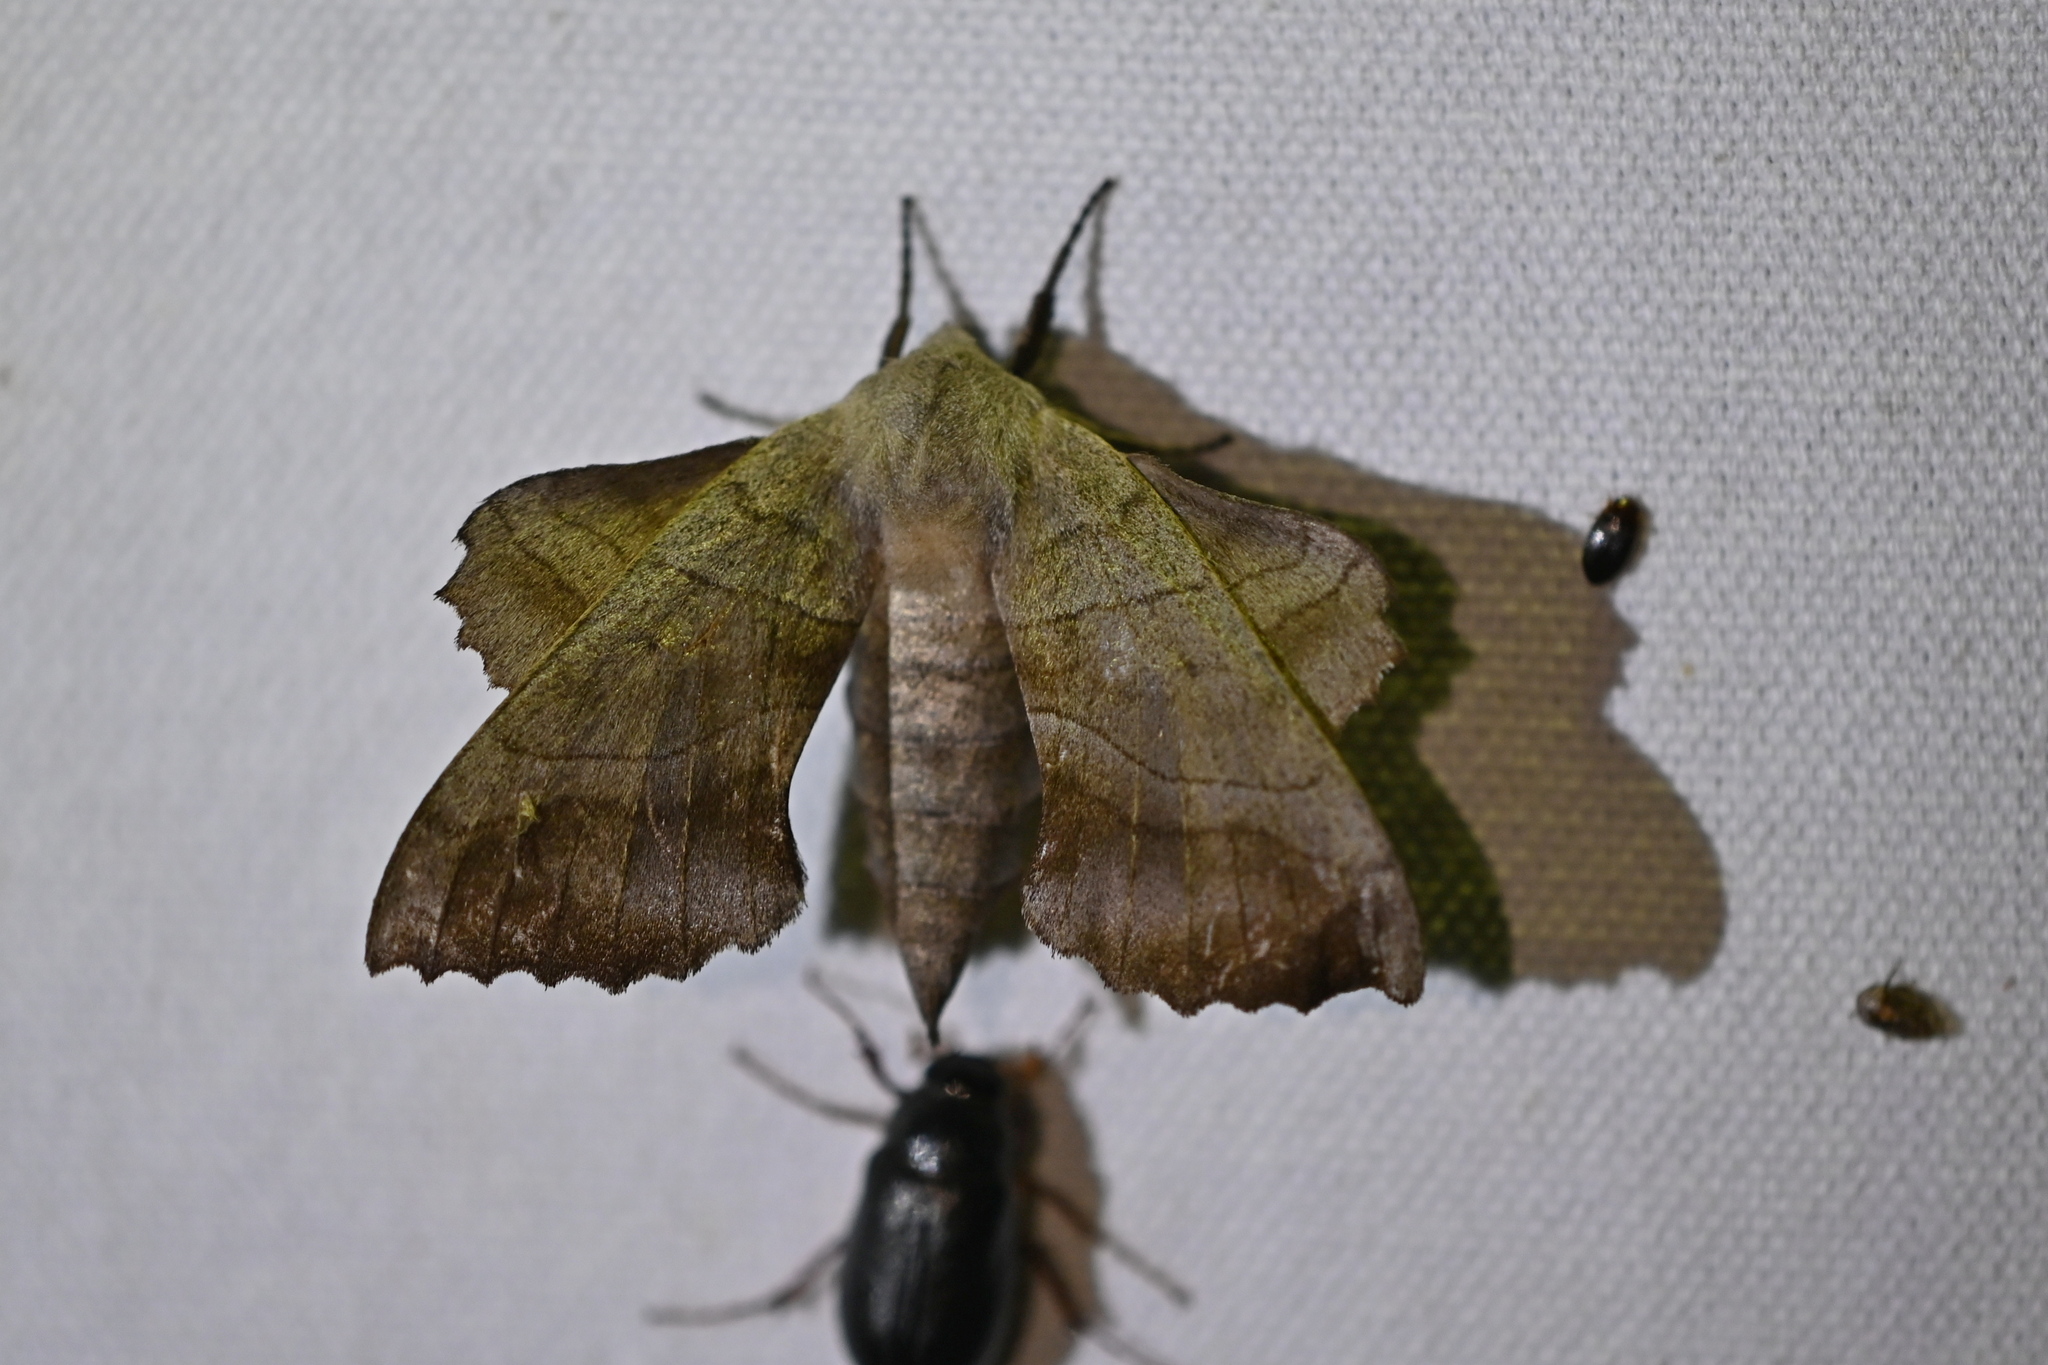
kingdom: Animalia
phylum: Arthropoda
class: Insecta
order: Lepidoptera
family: Sphingidae
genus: Amorpha
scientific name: Amorpha juglandis
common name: Walnut sphinx
